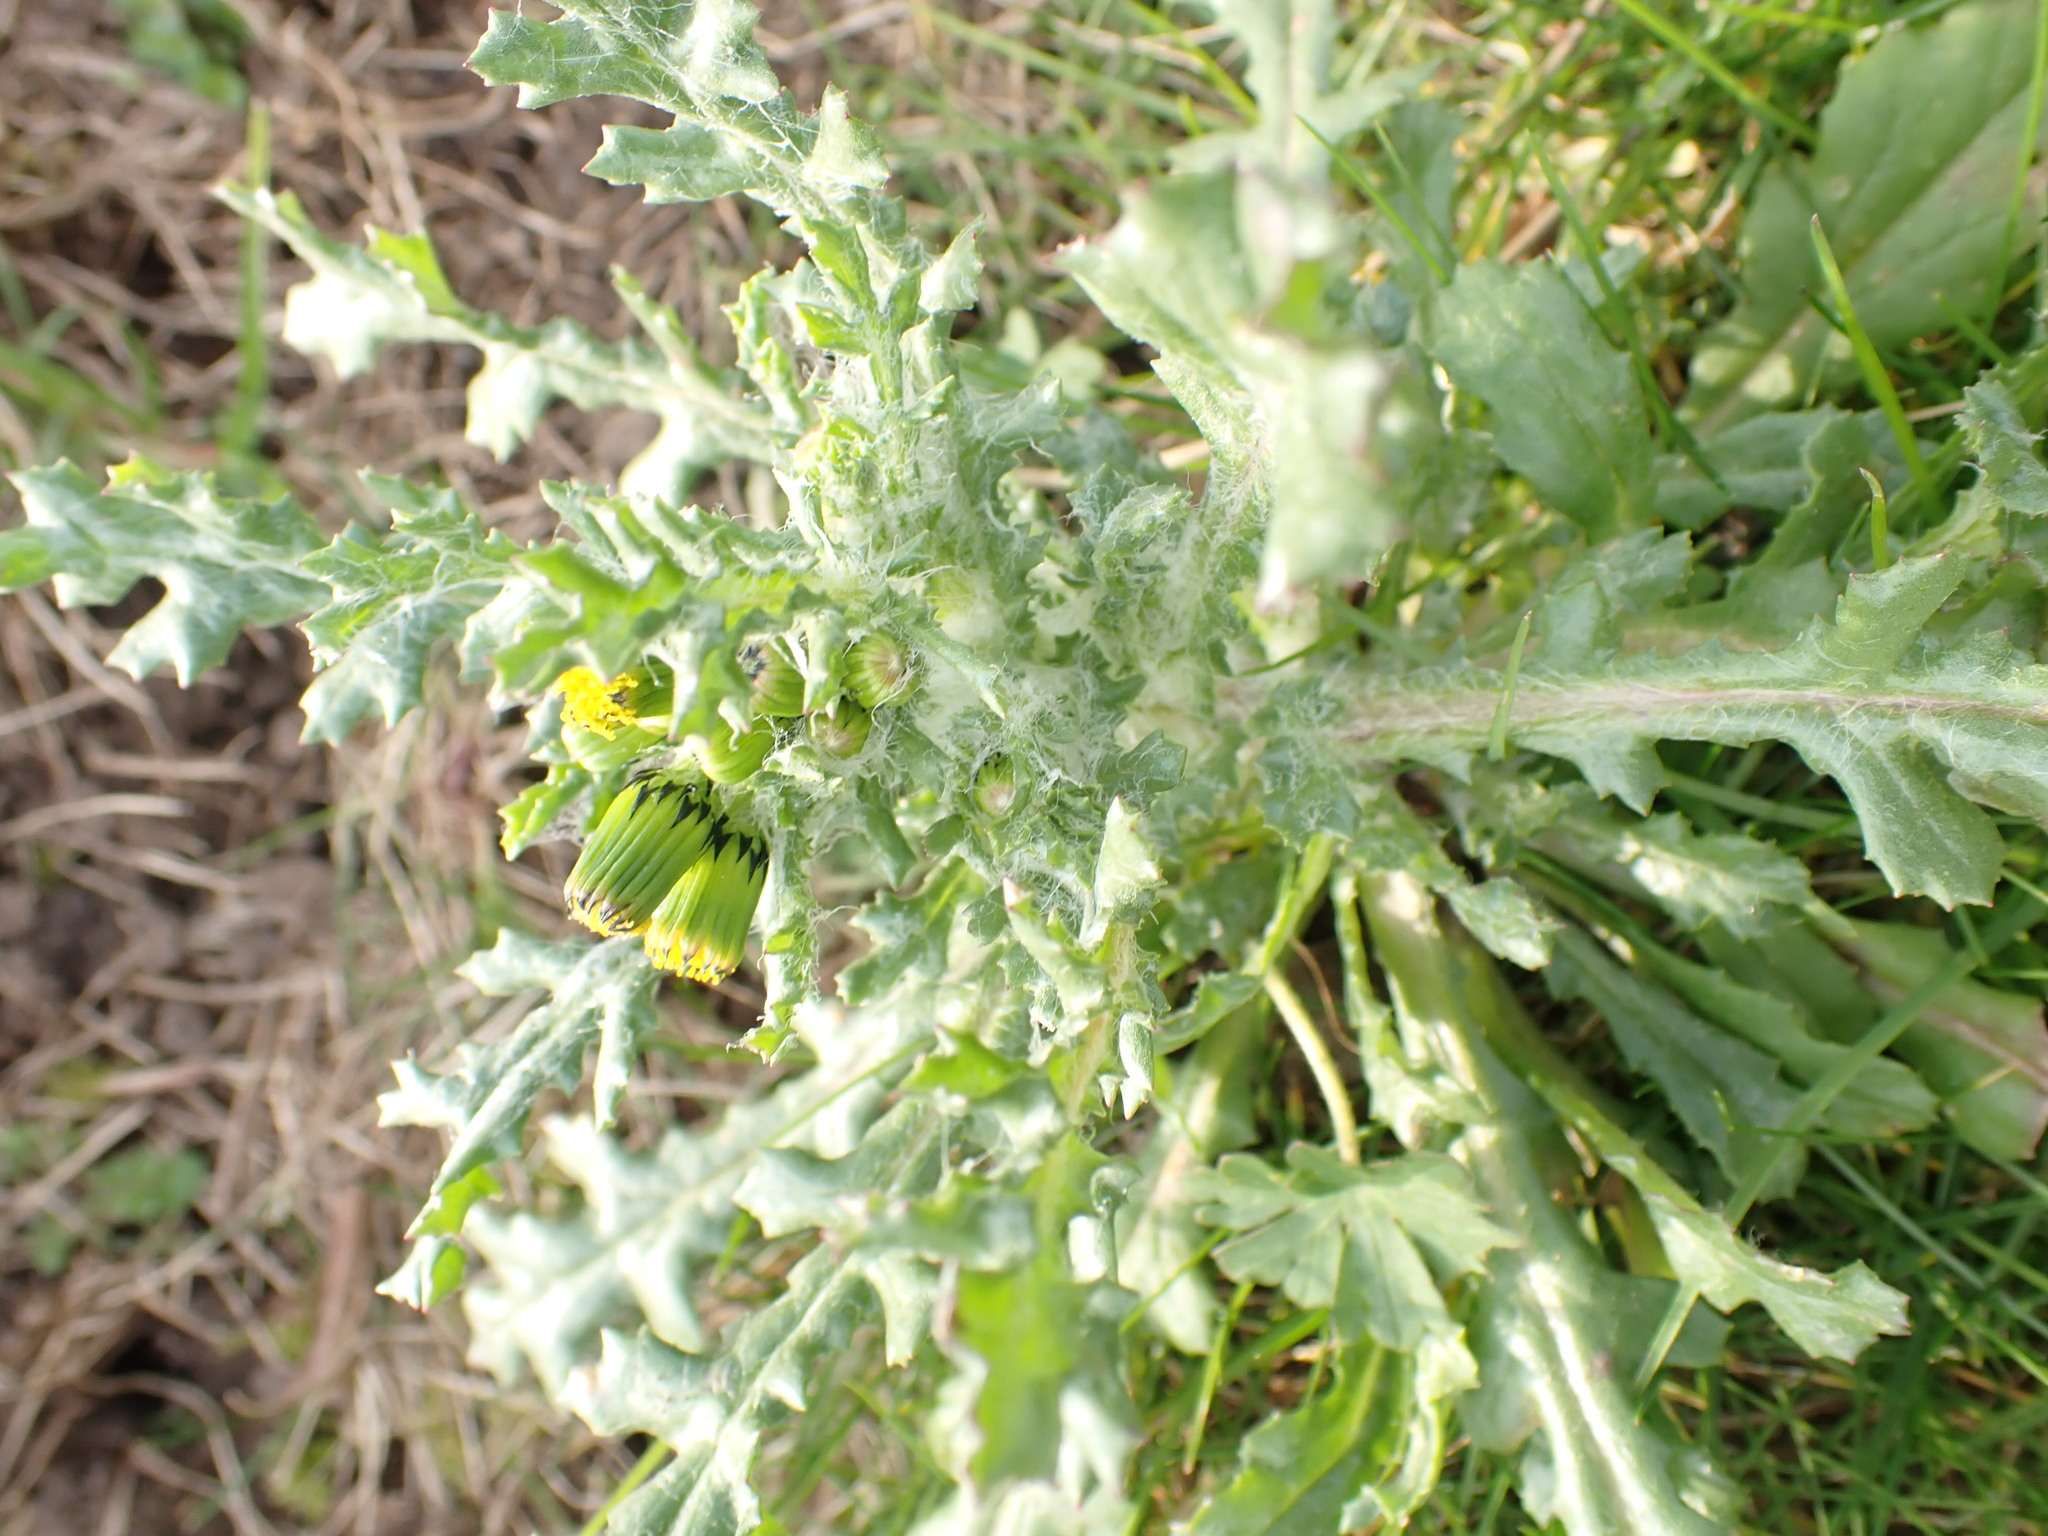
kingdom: Plantae
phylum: Tracheophyta
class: Magnoliopsida
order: Asterales
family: Asteraceae
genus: Senecio
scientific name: Senecio vulgaris
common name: Old-man-in-the-spring
